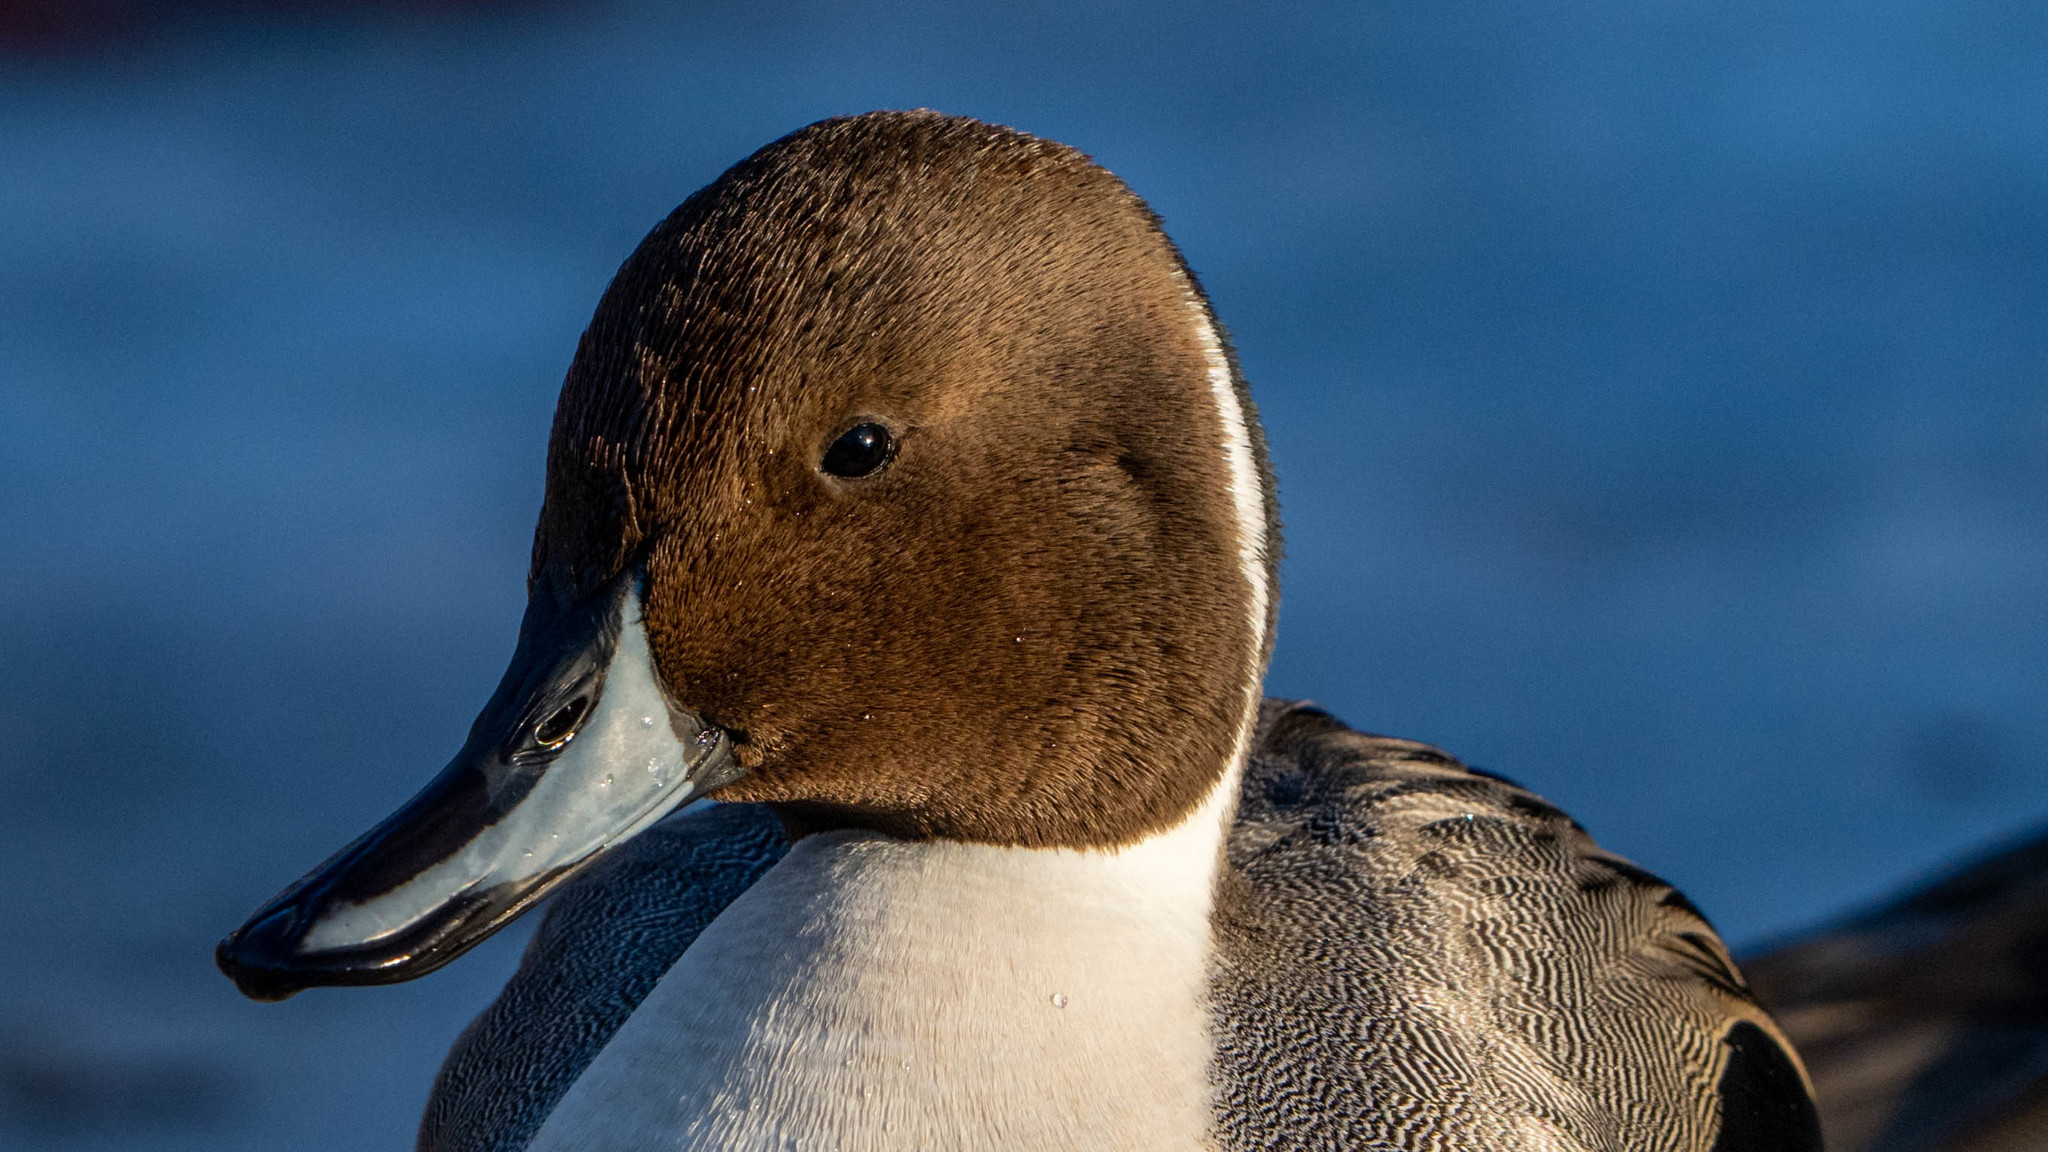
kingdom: Animalia
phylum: Chordata
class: Aves
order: Anseriformes
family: Anatidae
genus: Anas
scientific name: Anas acuta
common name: Northern pintail
